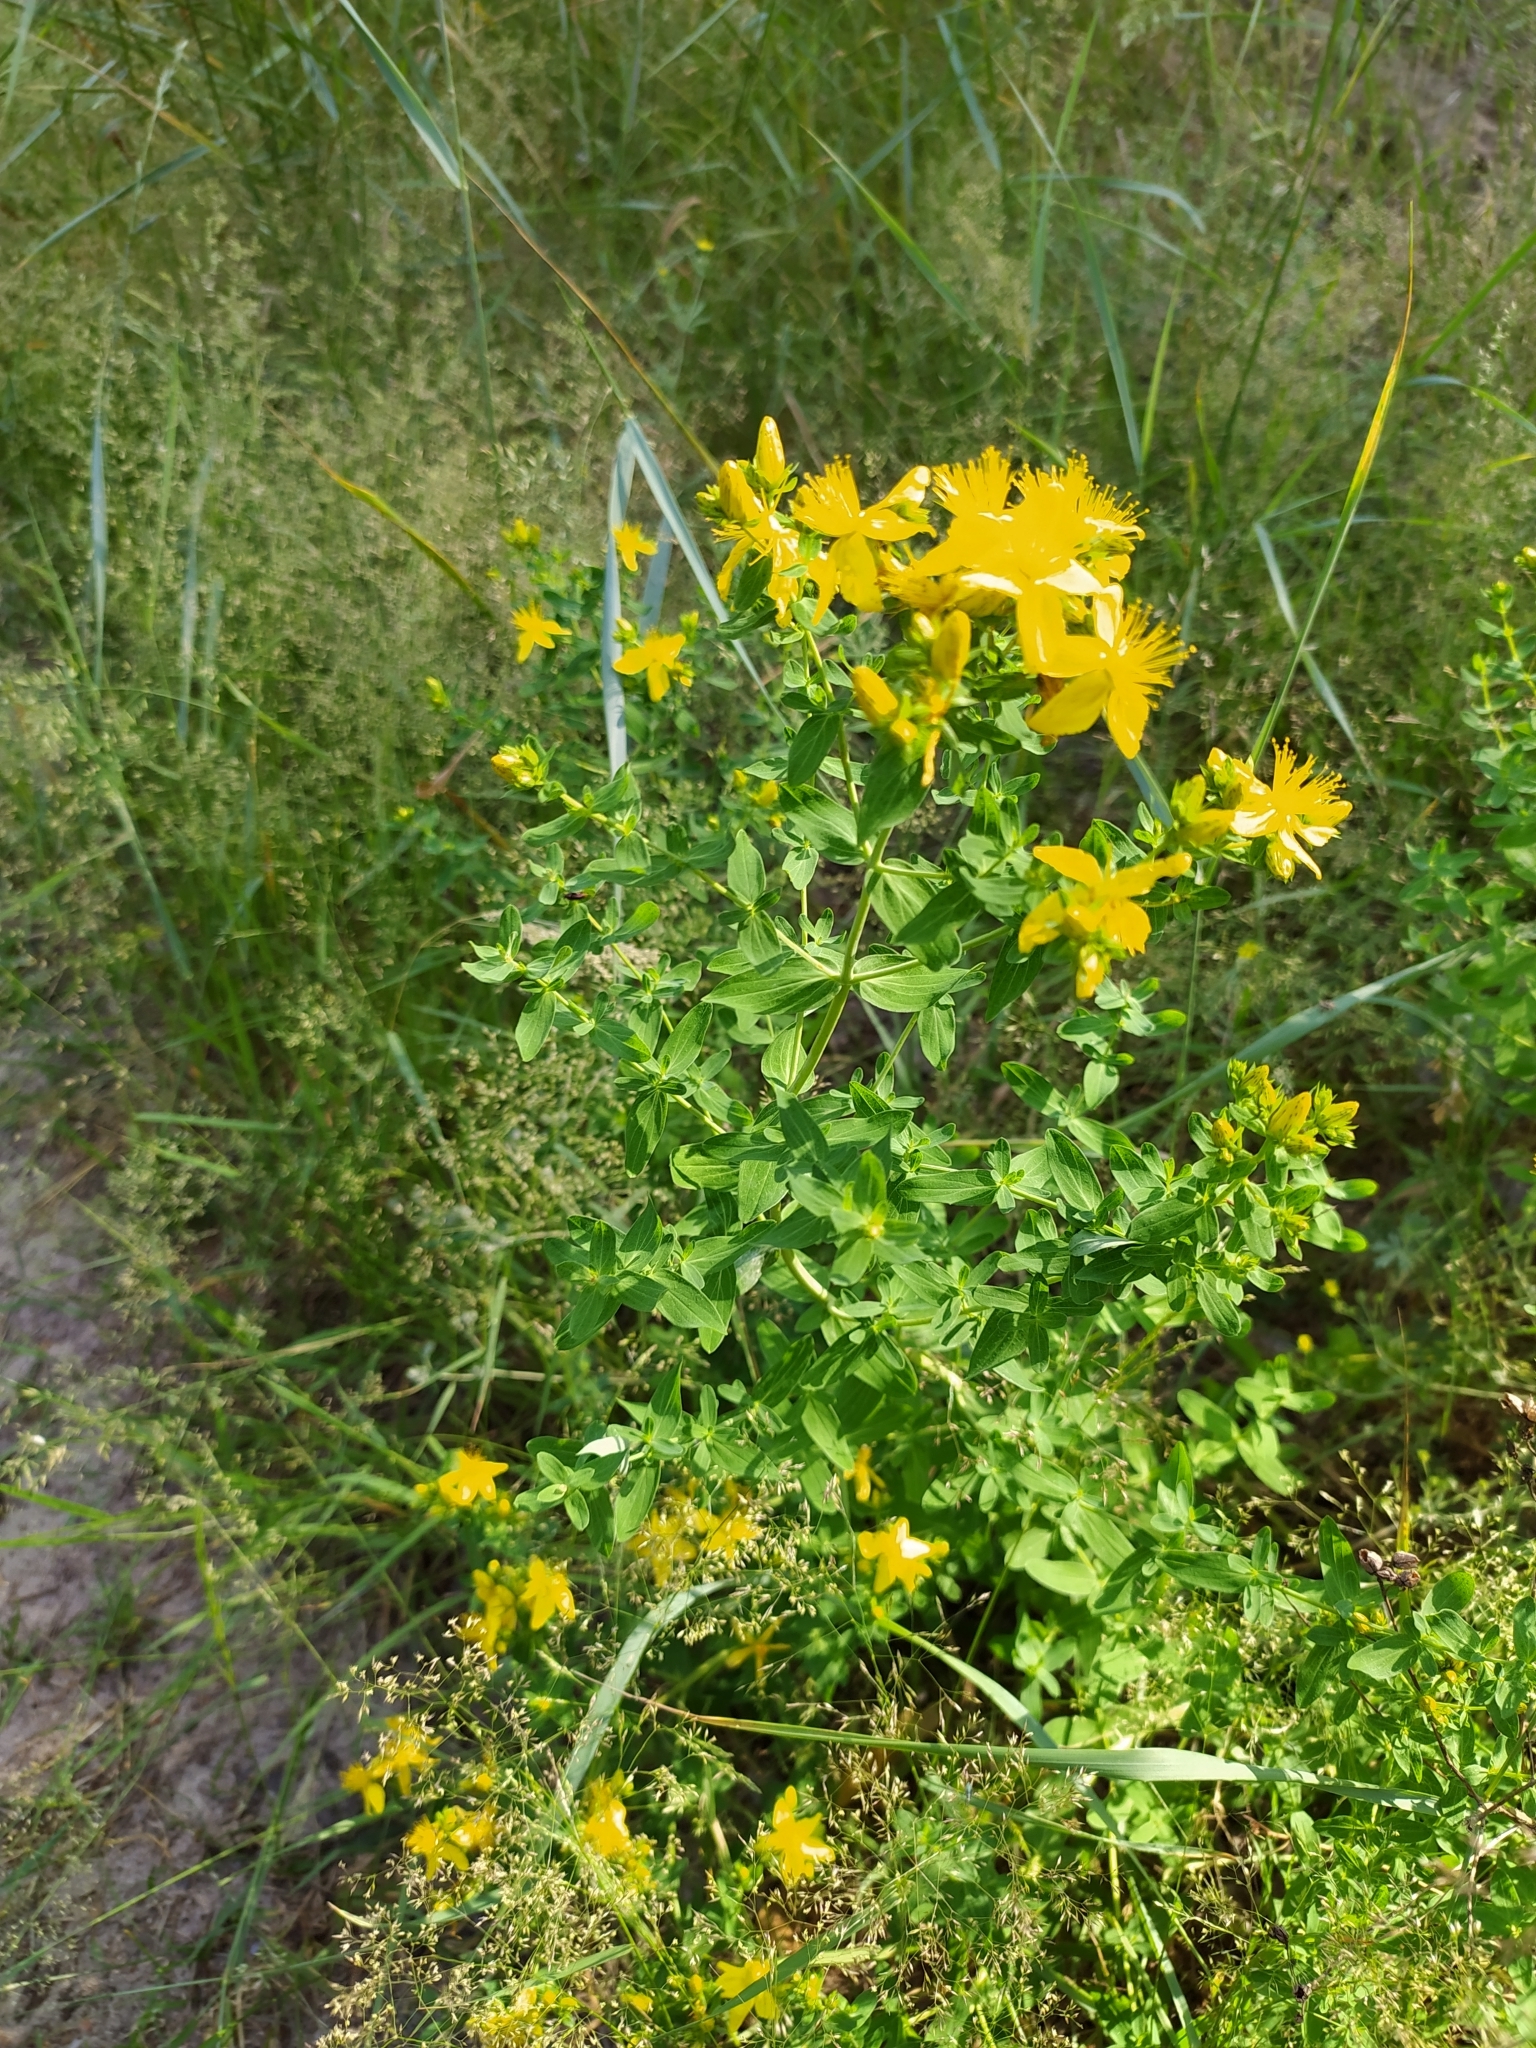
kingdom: Plantae
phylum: Tracheophyta
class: Magnoliopsida
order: Malpighiales
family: Hypericaceae
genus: Hypericum
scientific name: Hypericum perforatum
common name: Common st. johnswort
